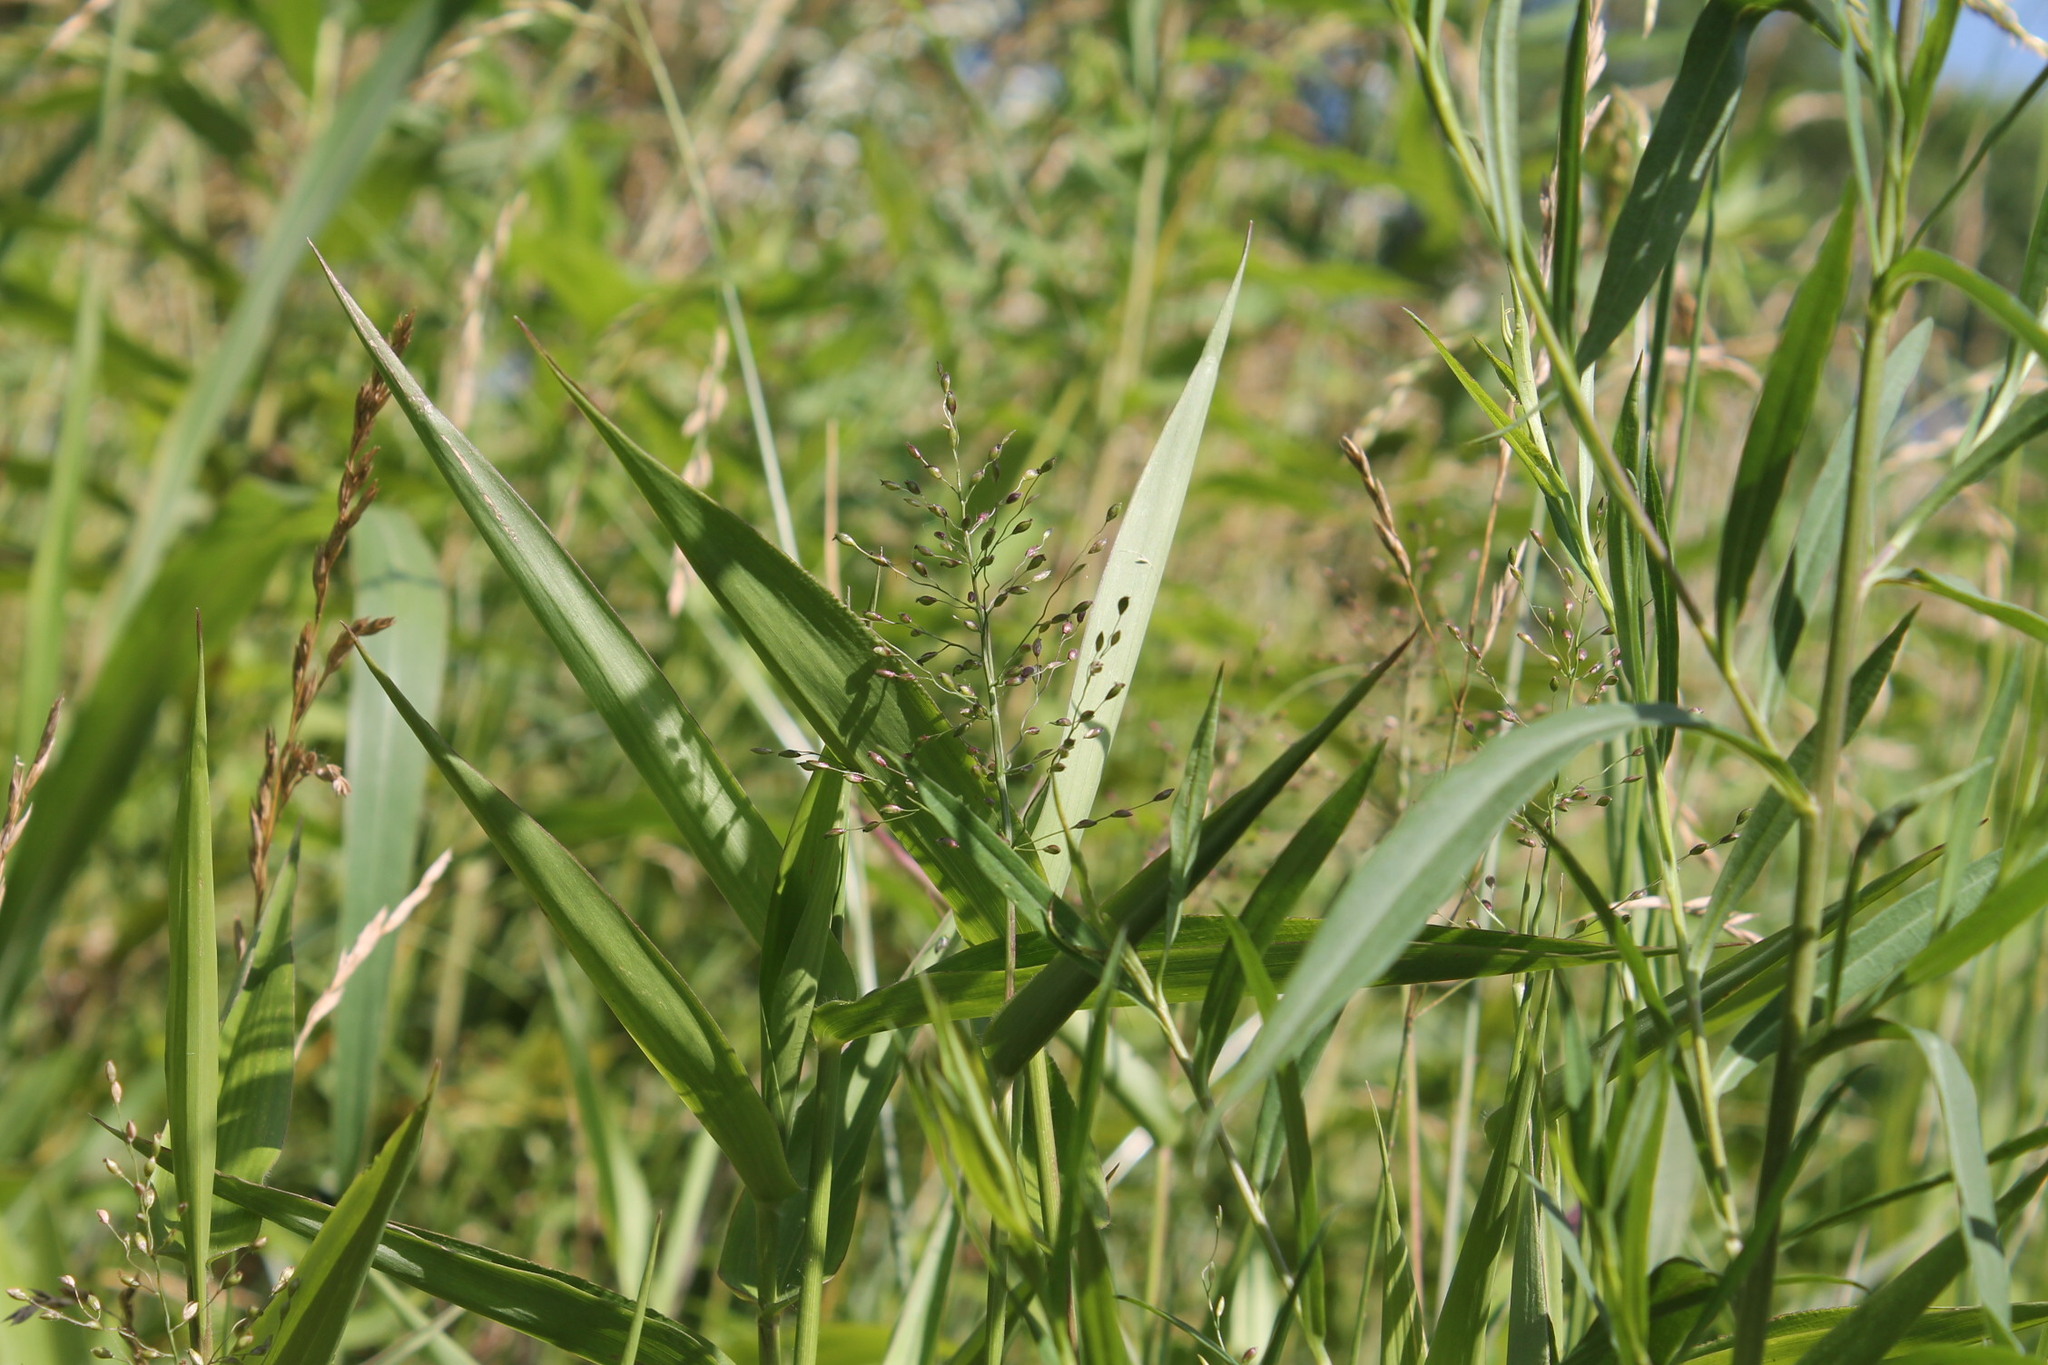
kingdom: Plantae
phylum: Tracheophyta
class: Liliopsida
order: Poales
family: Poaceae
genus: Dichanthelium
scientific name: Dichanthelium clandestinum
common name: Deer-tongue grass
